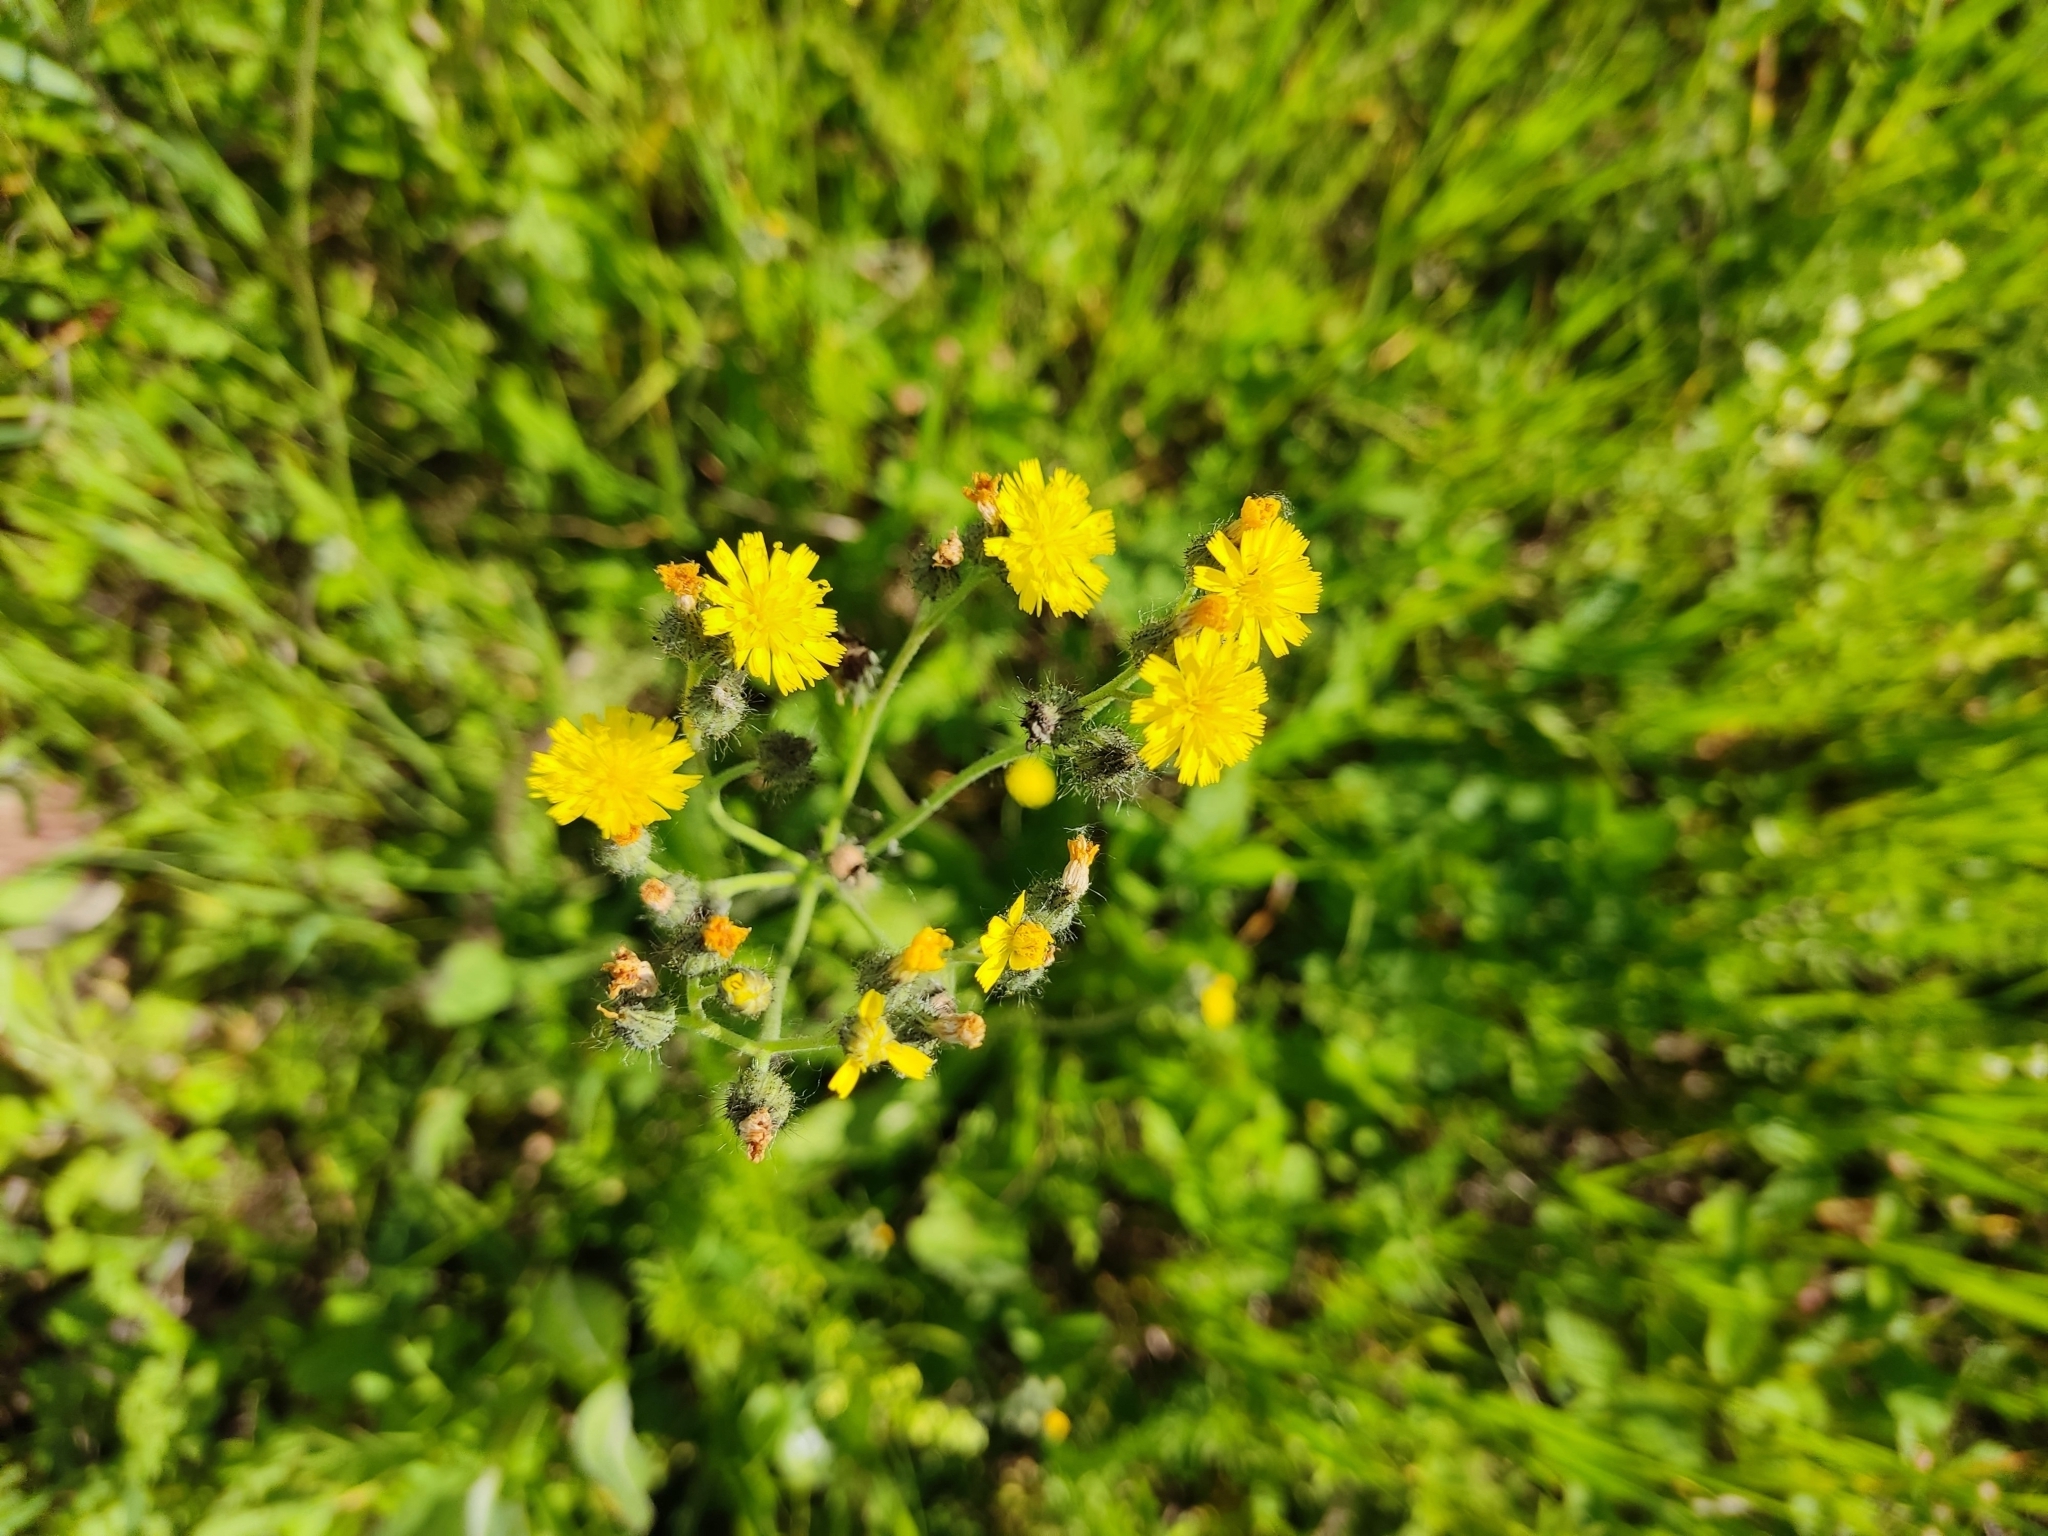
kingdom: Plantae
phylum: Tracheophyta
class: Magnoliopsida
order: Asterales
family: Asteraceae
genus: Pilosella
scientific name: Pilosella
